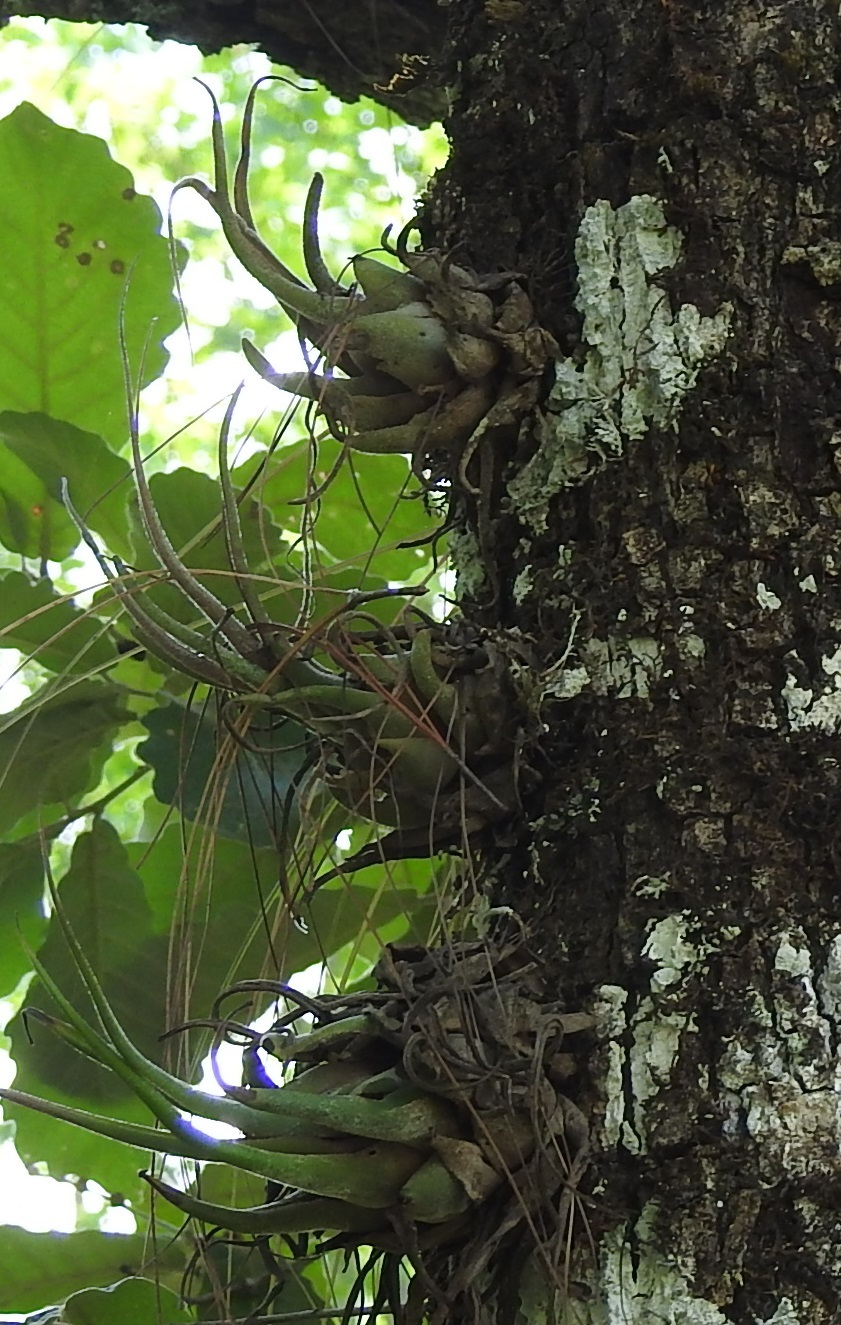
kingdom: Plantae
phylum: Tracheophyta
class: Liliopsida
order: Poales
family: Bromeliaceae
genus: Tillandsia
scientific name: Tillandsia seleriana
